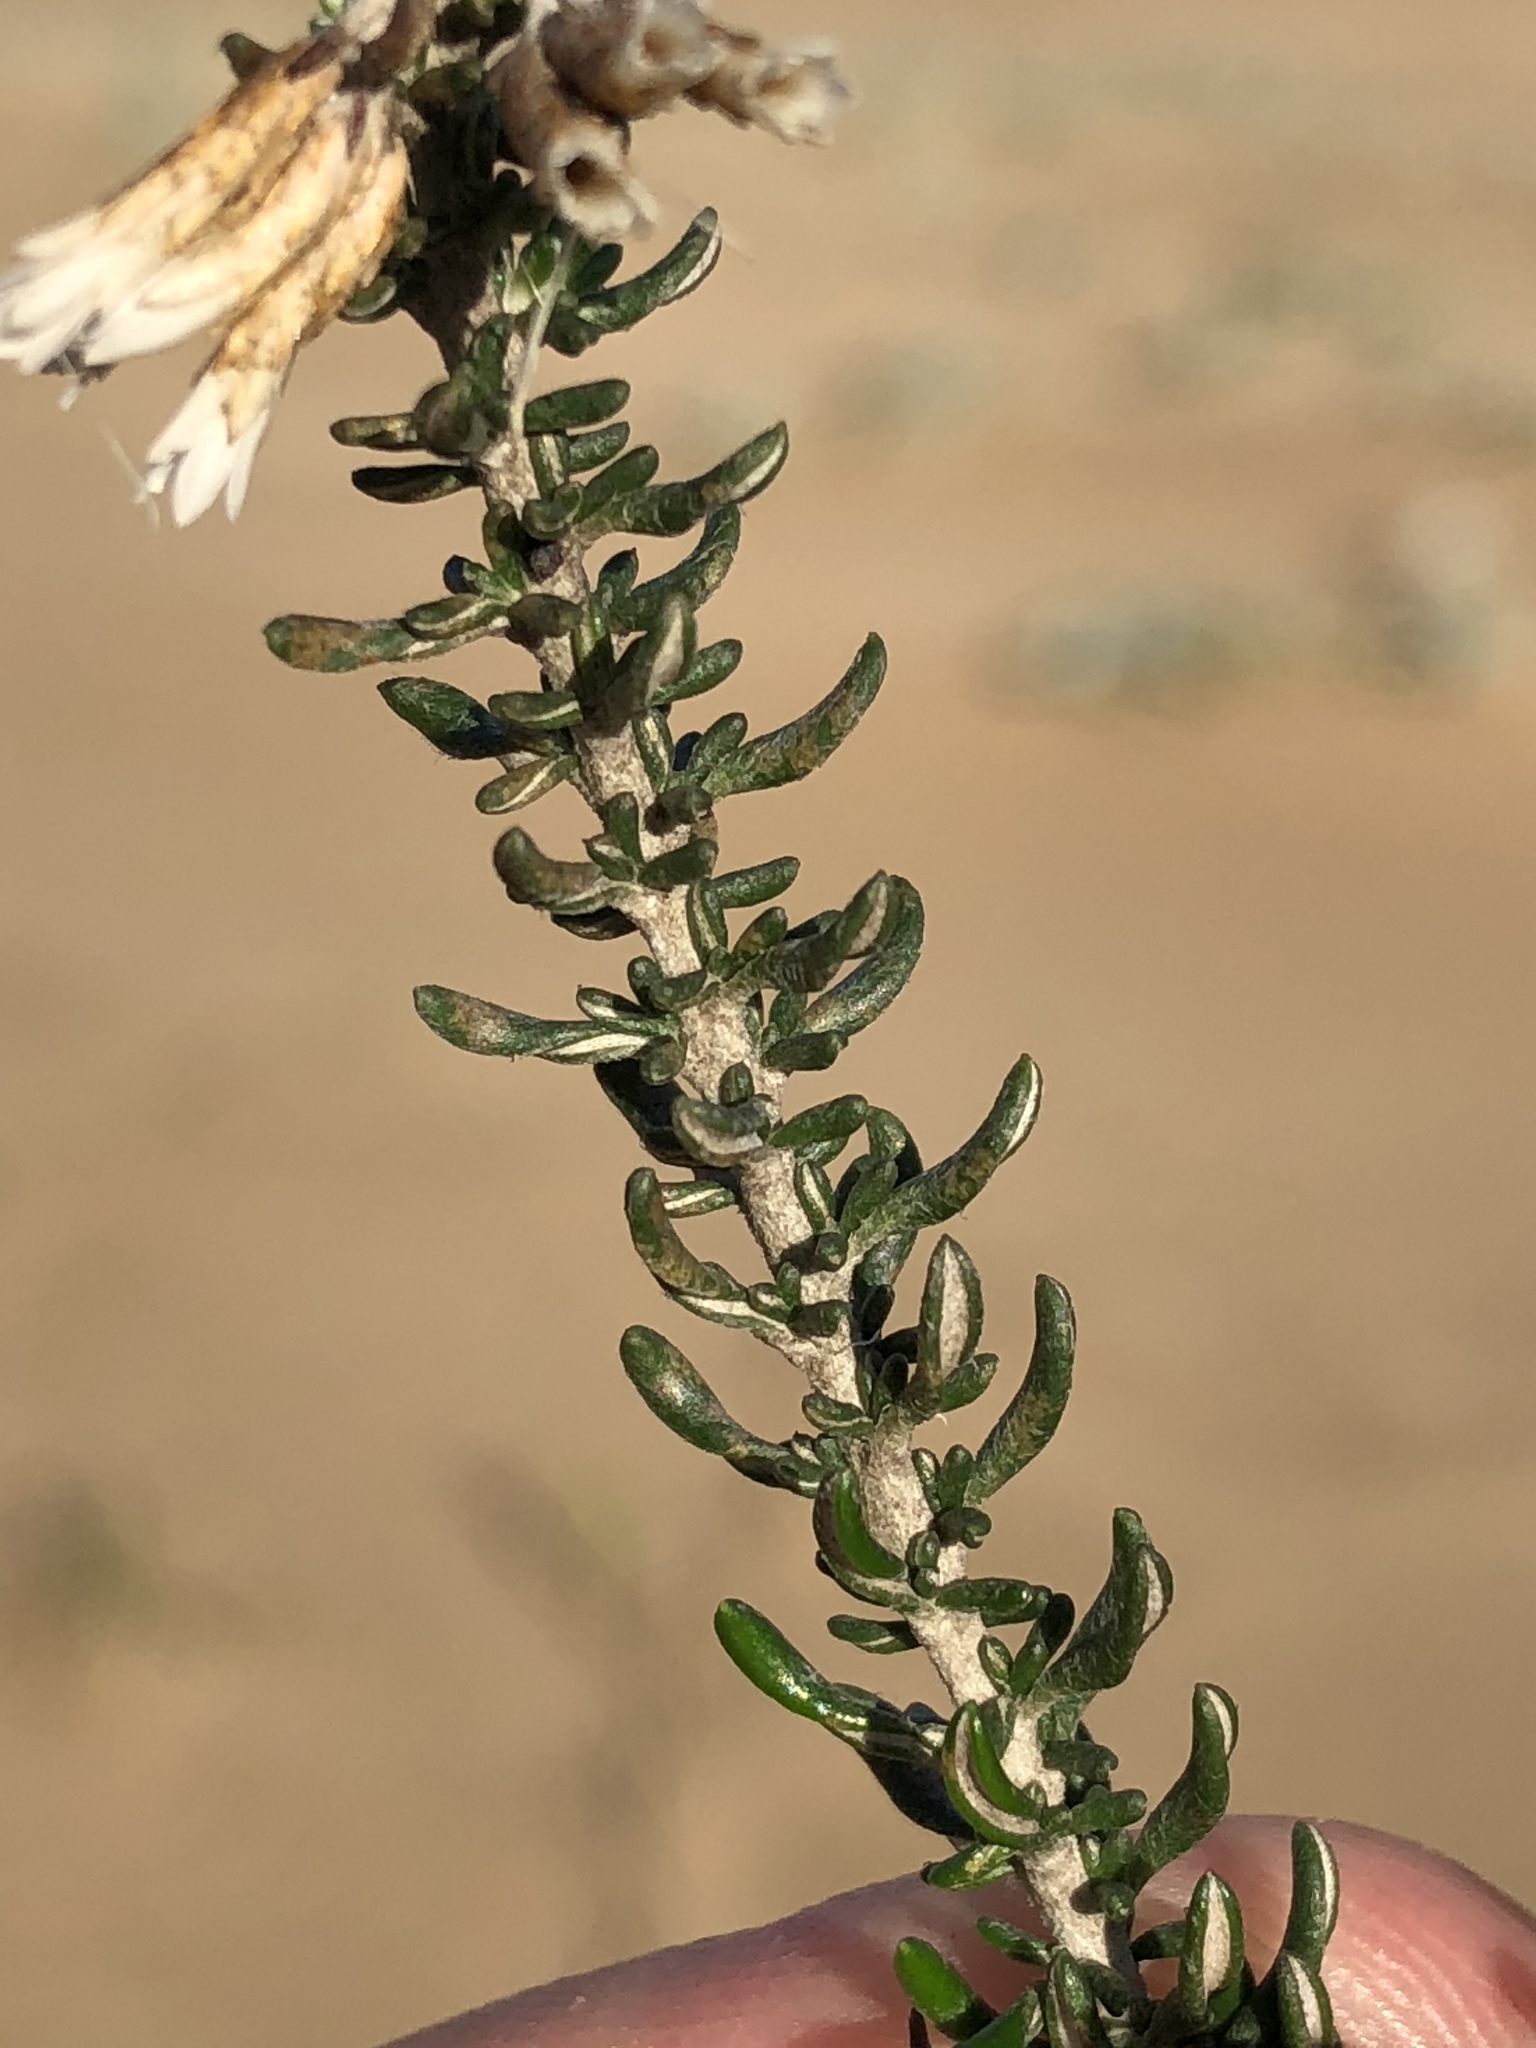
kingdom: Plantae
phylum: Tracheophyta
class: Magnoliopsida
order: Asterales
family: Asteraceae
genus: Metalasia
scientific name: Metalasia muricata
